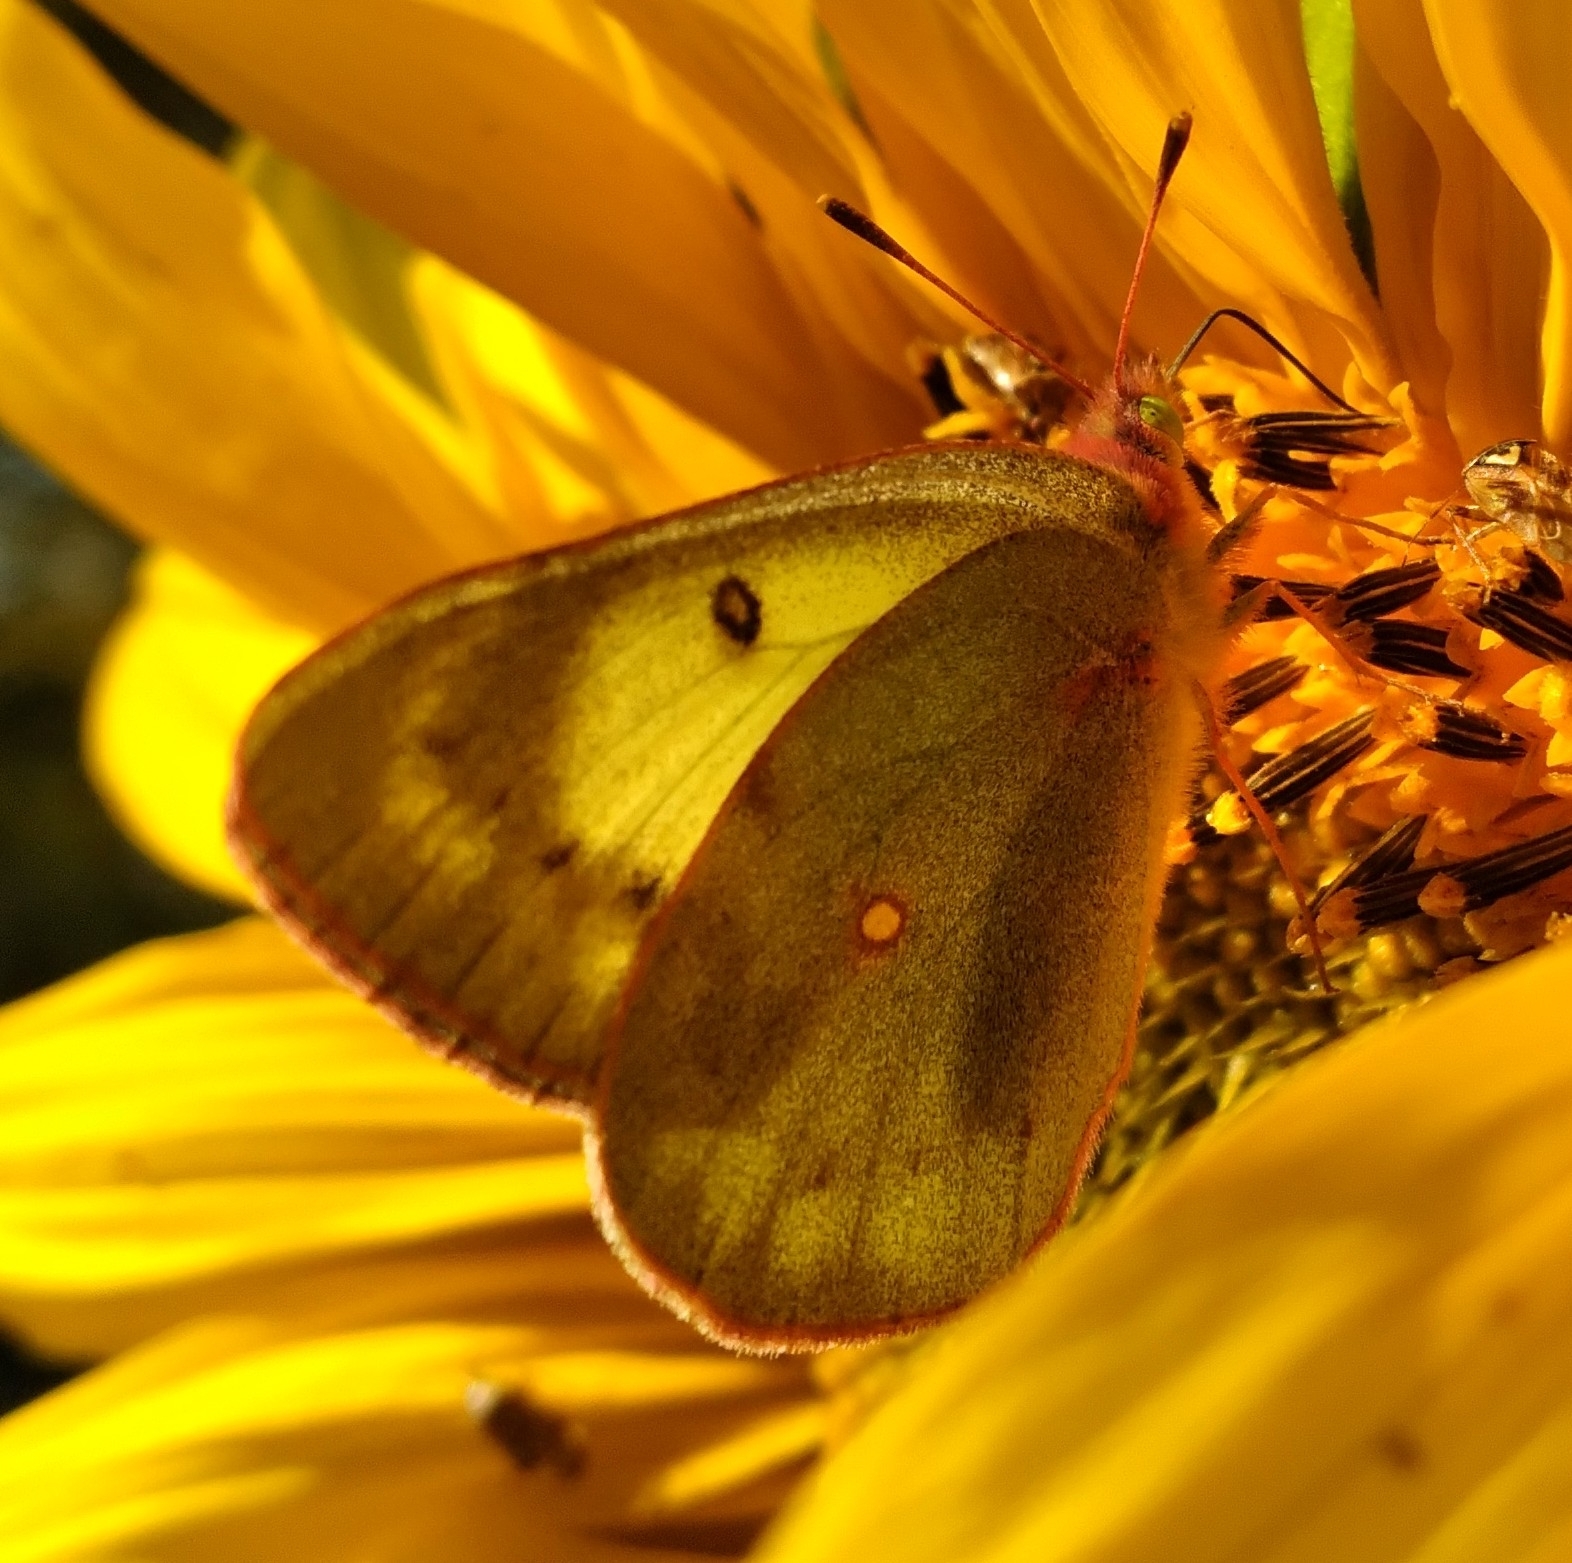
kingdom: Animalia
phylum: Arthropoda
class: Insecta
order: Lepidoptera
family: Pieridae
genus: Colias
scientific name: Colias philodice
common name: Clouded sulphur
